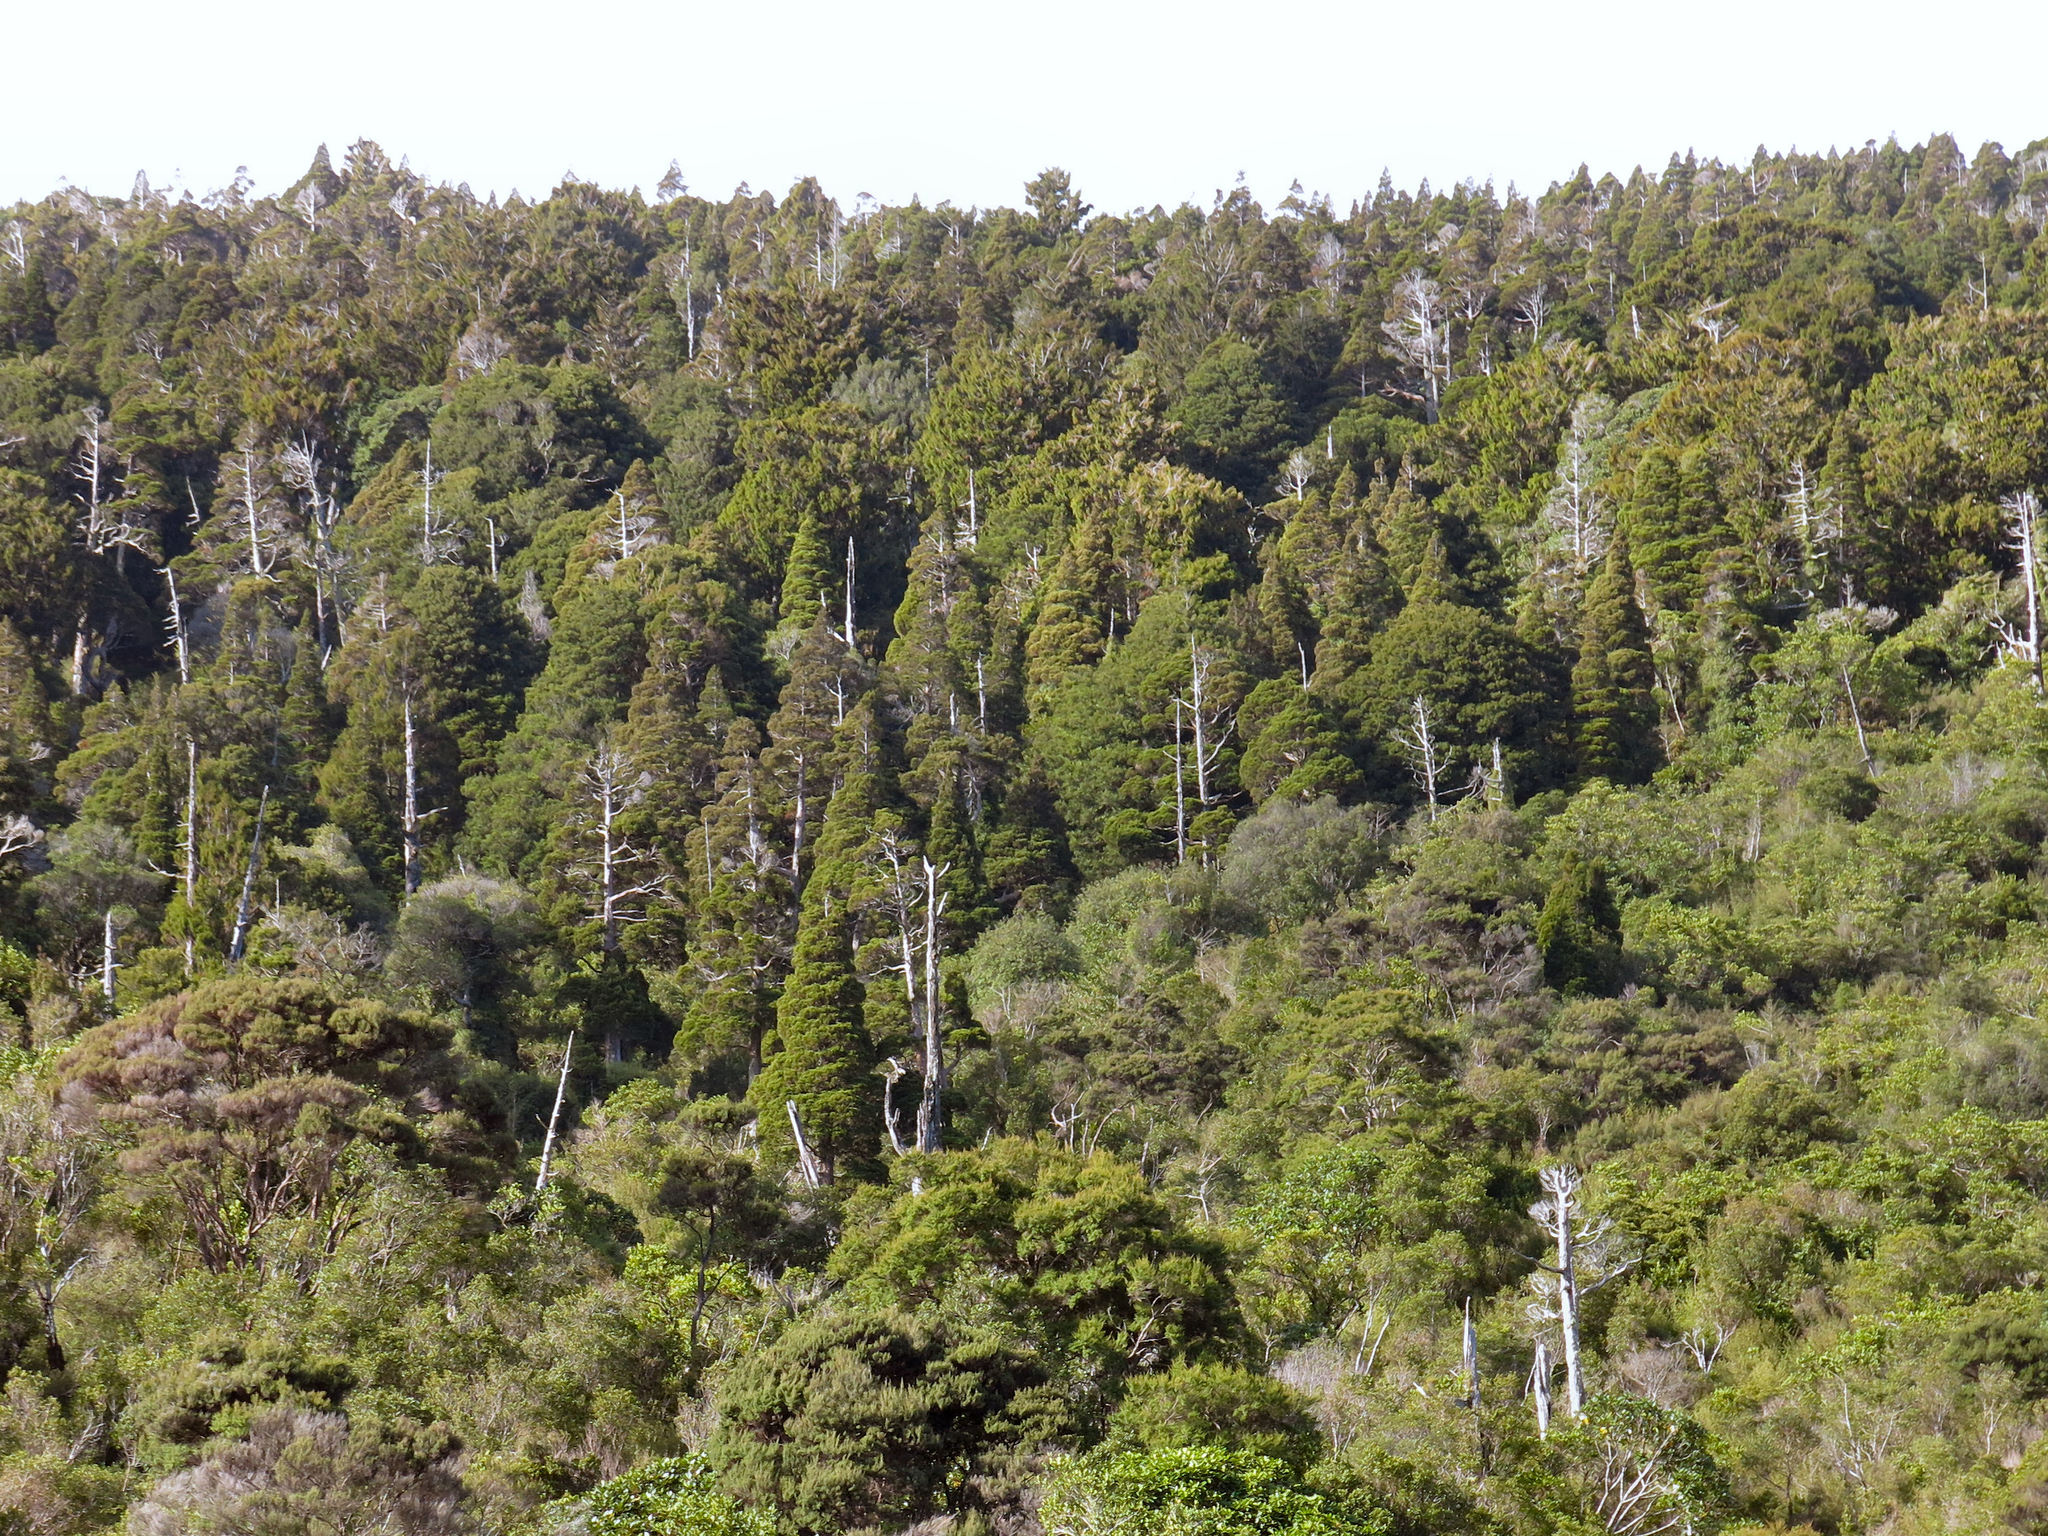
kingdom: Plantae
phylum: Tracheophyta
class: Pinopsida
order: Pinales
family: Cupressaceae
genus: Libocedrus
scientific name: Libocedrus bidwillii
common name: Cedar
